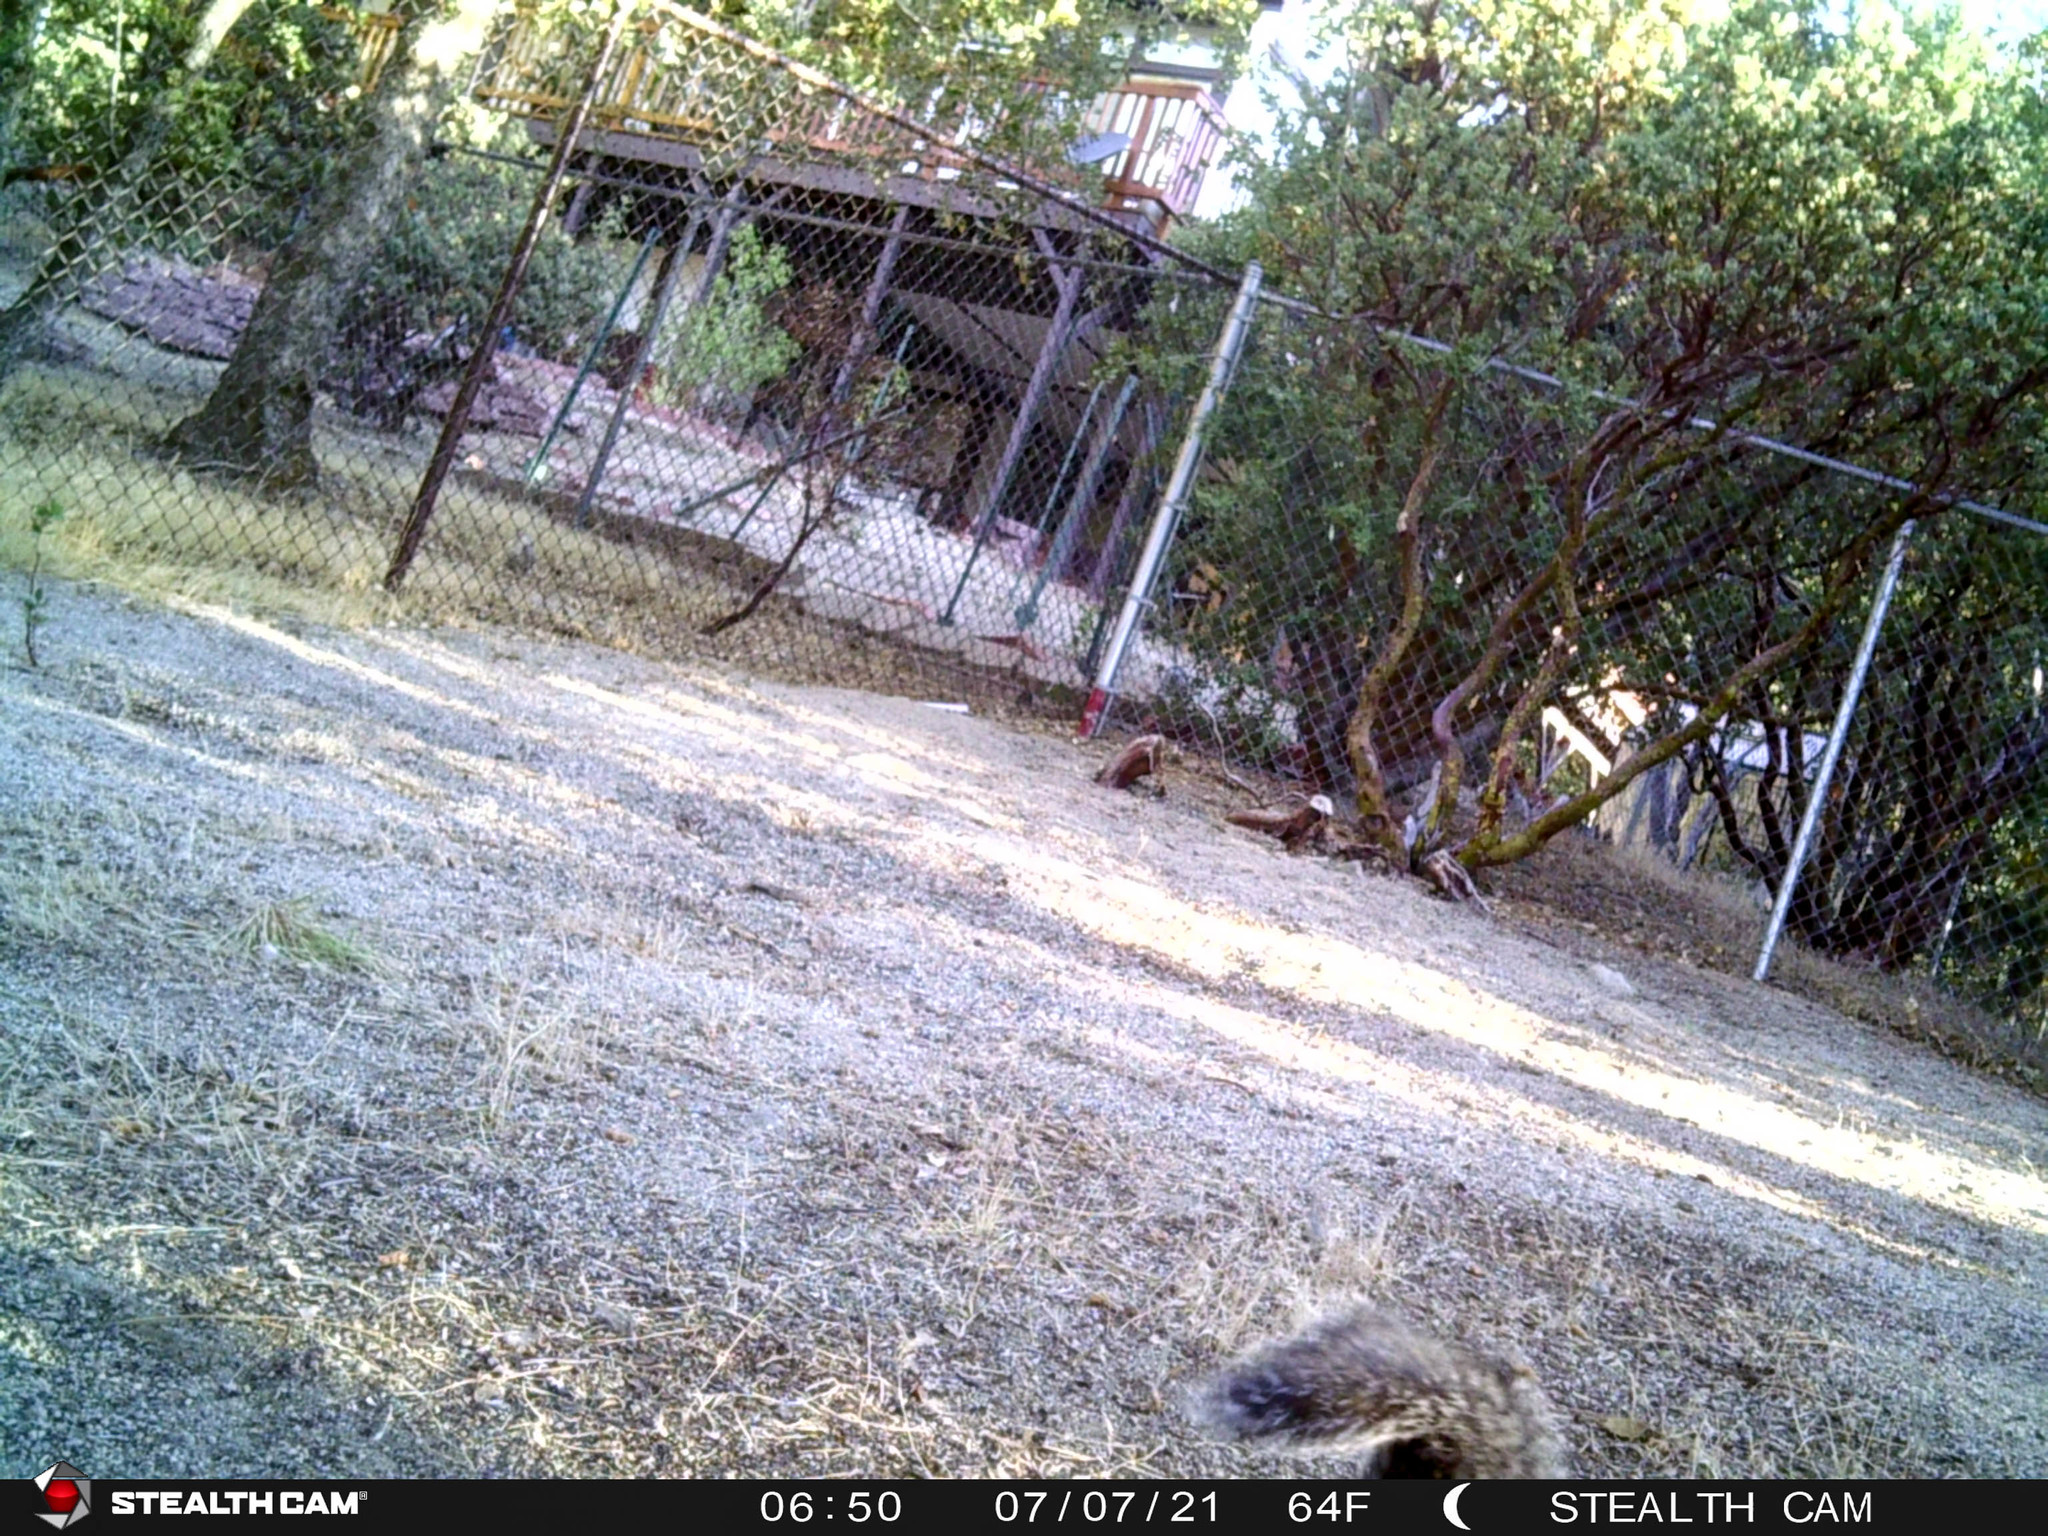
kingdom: Animalia
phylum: Chordata
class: Mammalia
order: Rodentia
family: Sciuridae
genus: Sciurus
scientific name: Sciurus griseus
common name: Western gray squirrel
